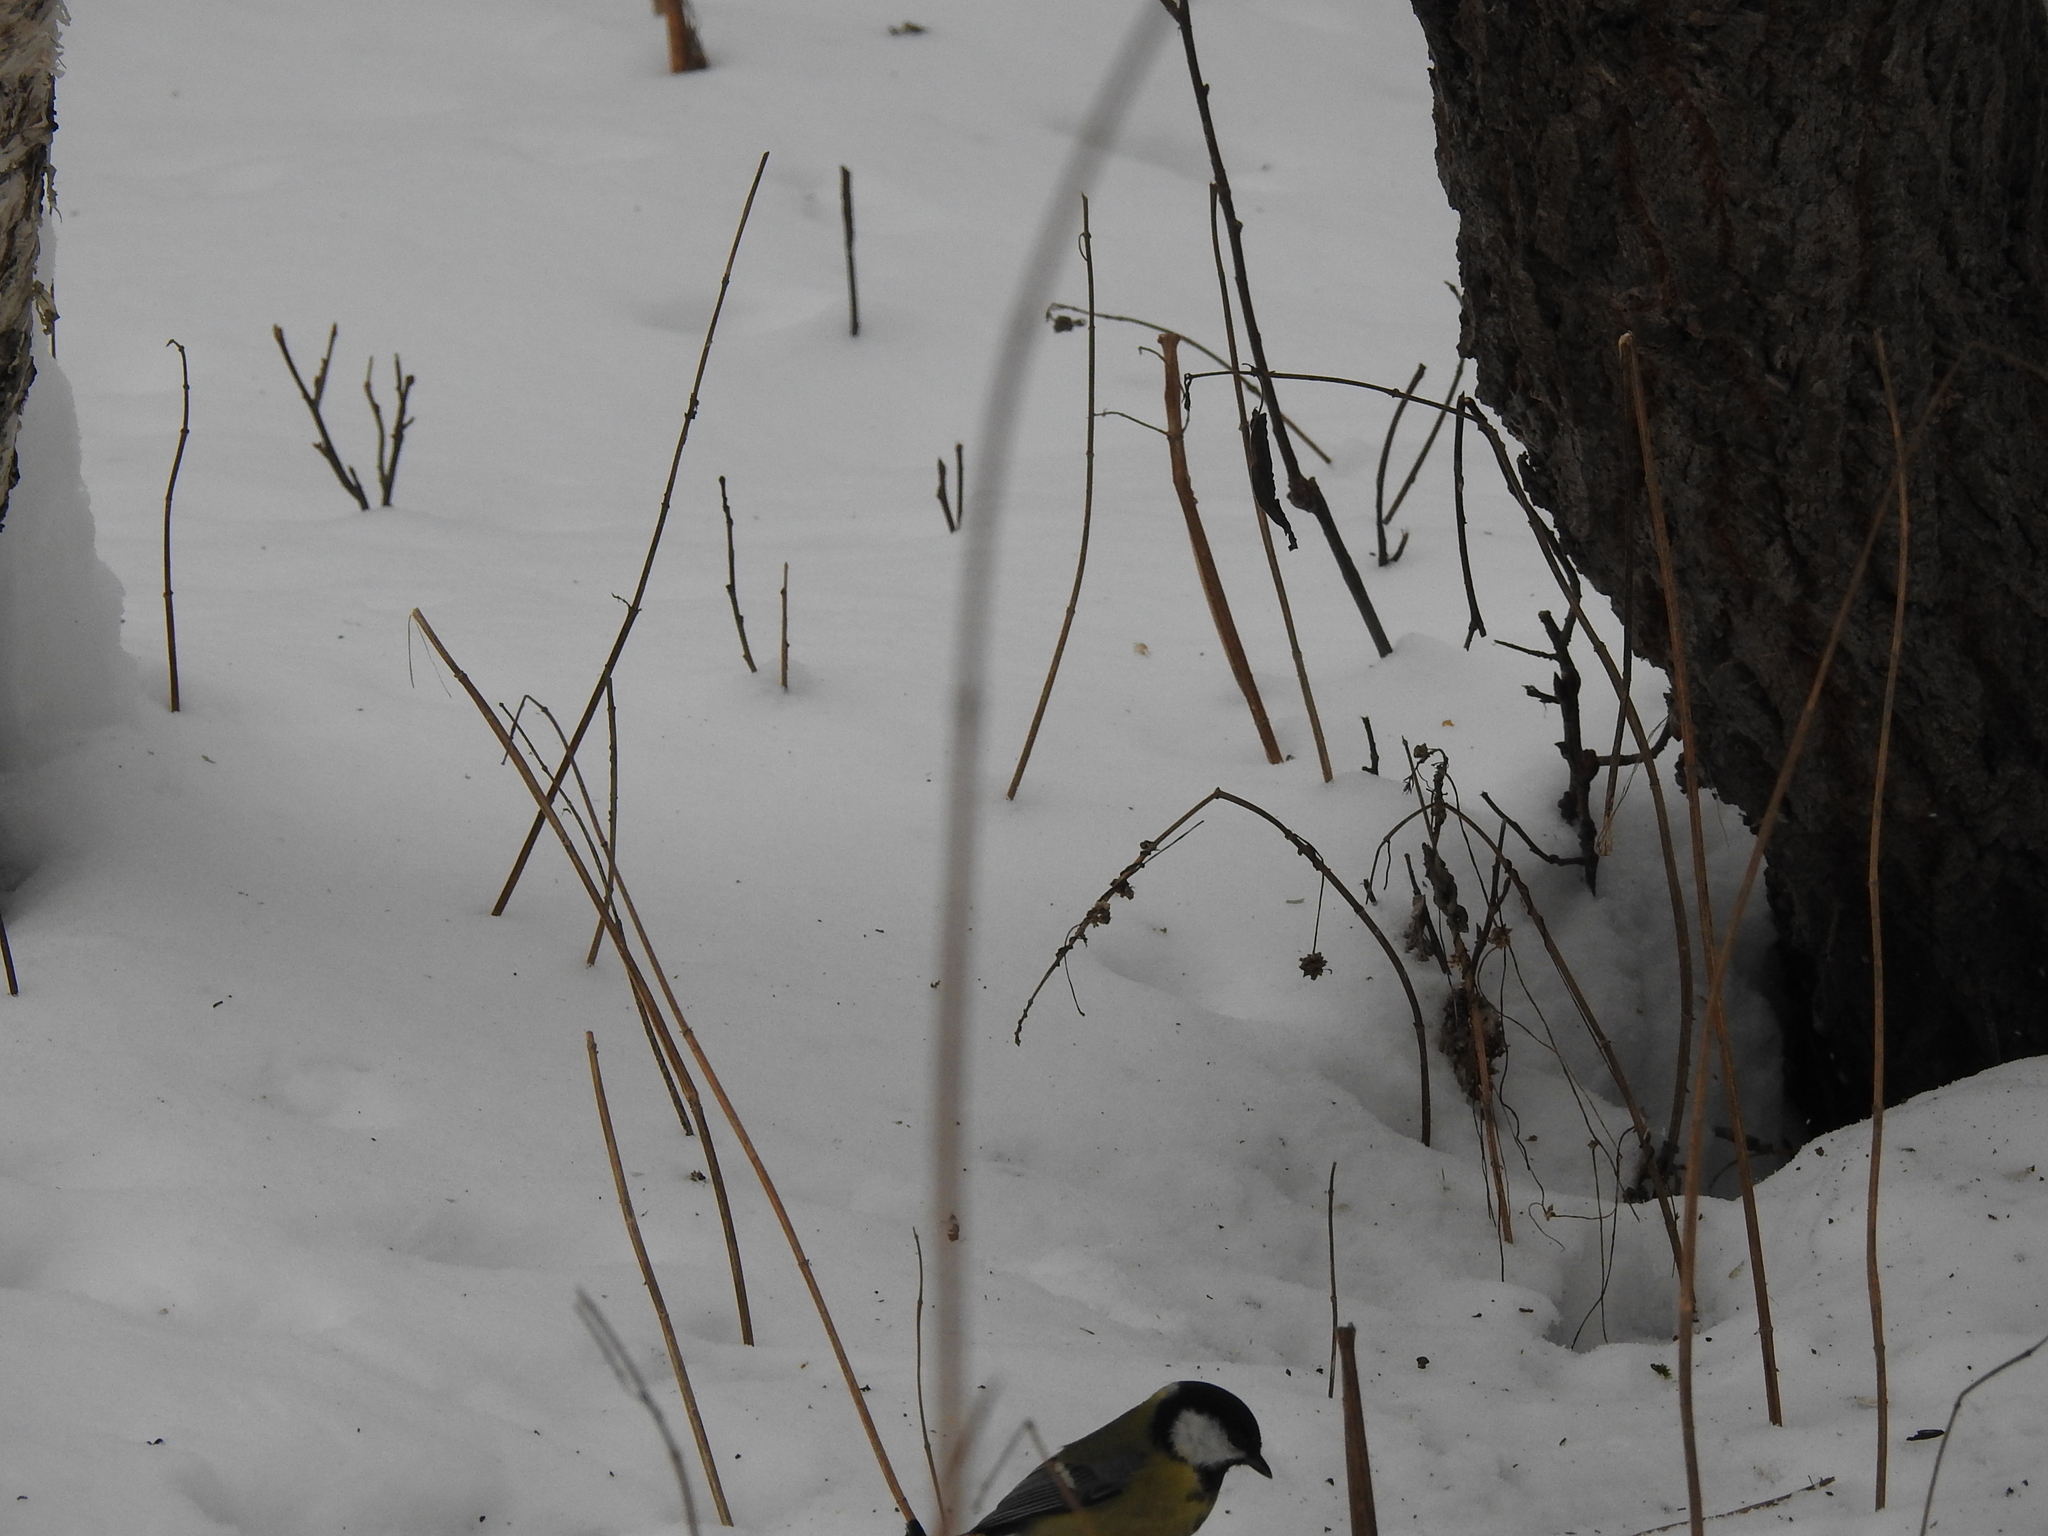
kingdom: Animalia
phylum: Chordata
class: Aves
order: Passeriformes
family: Paridae
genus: Parus
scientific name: Parus major
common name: Great tit
